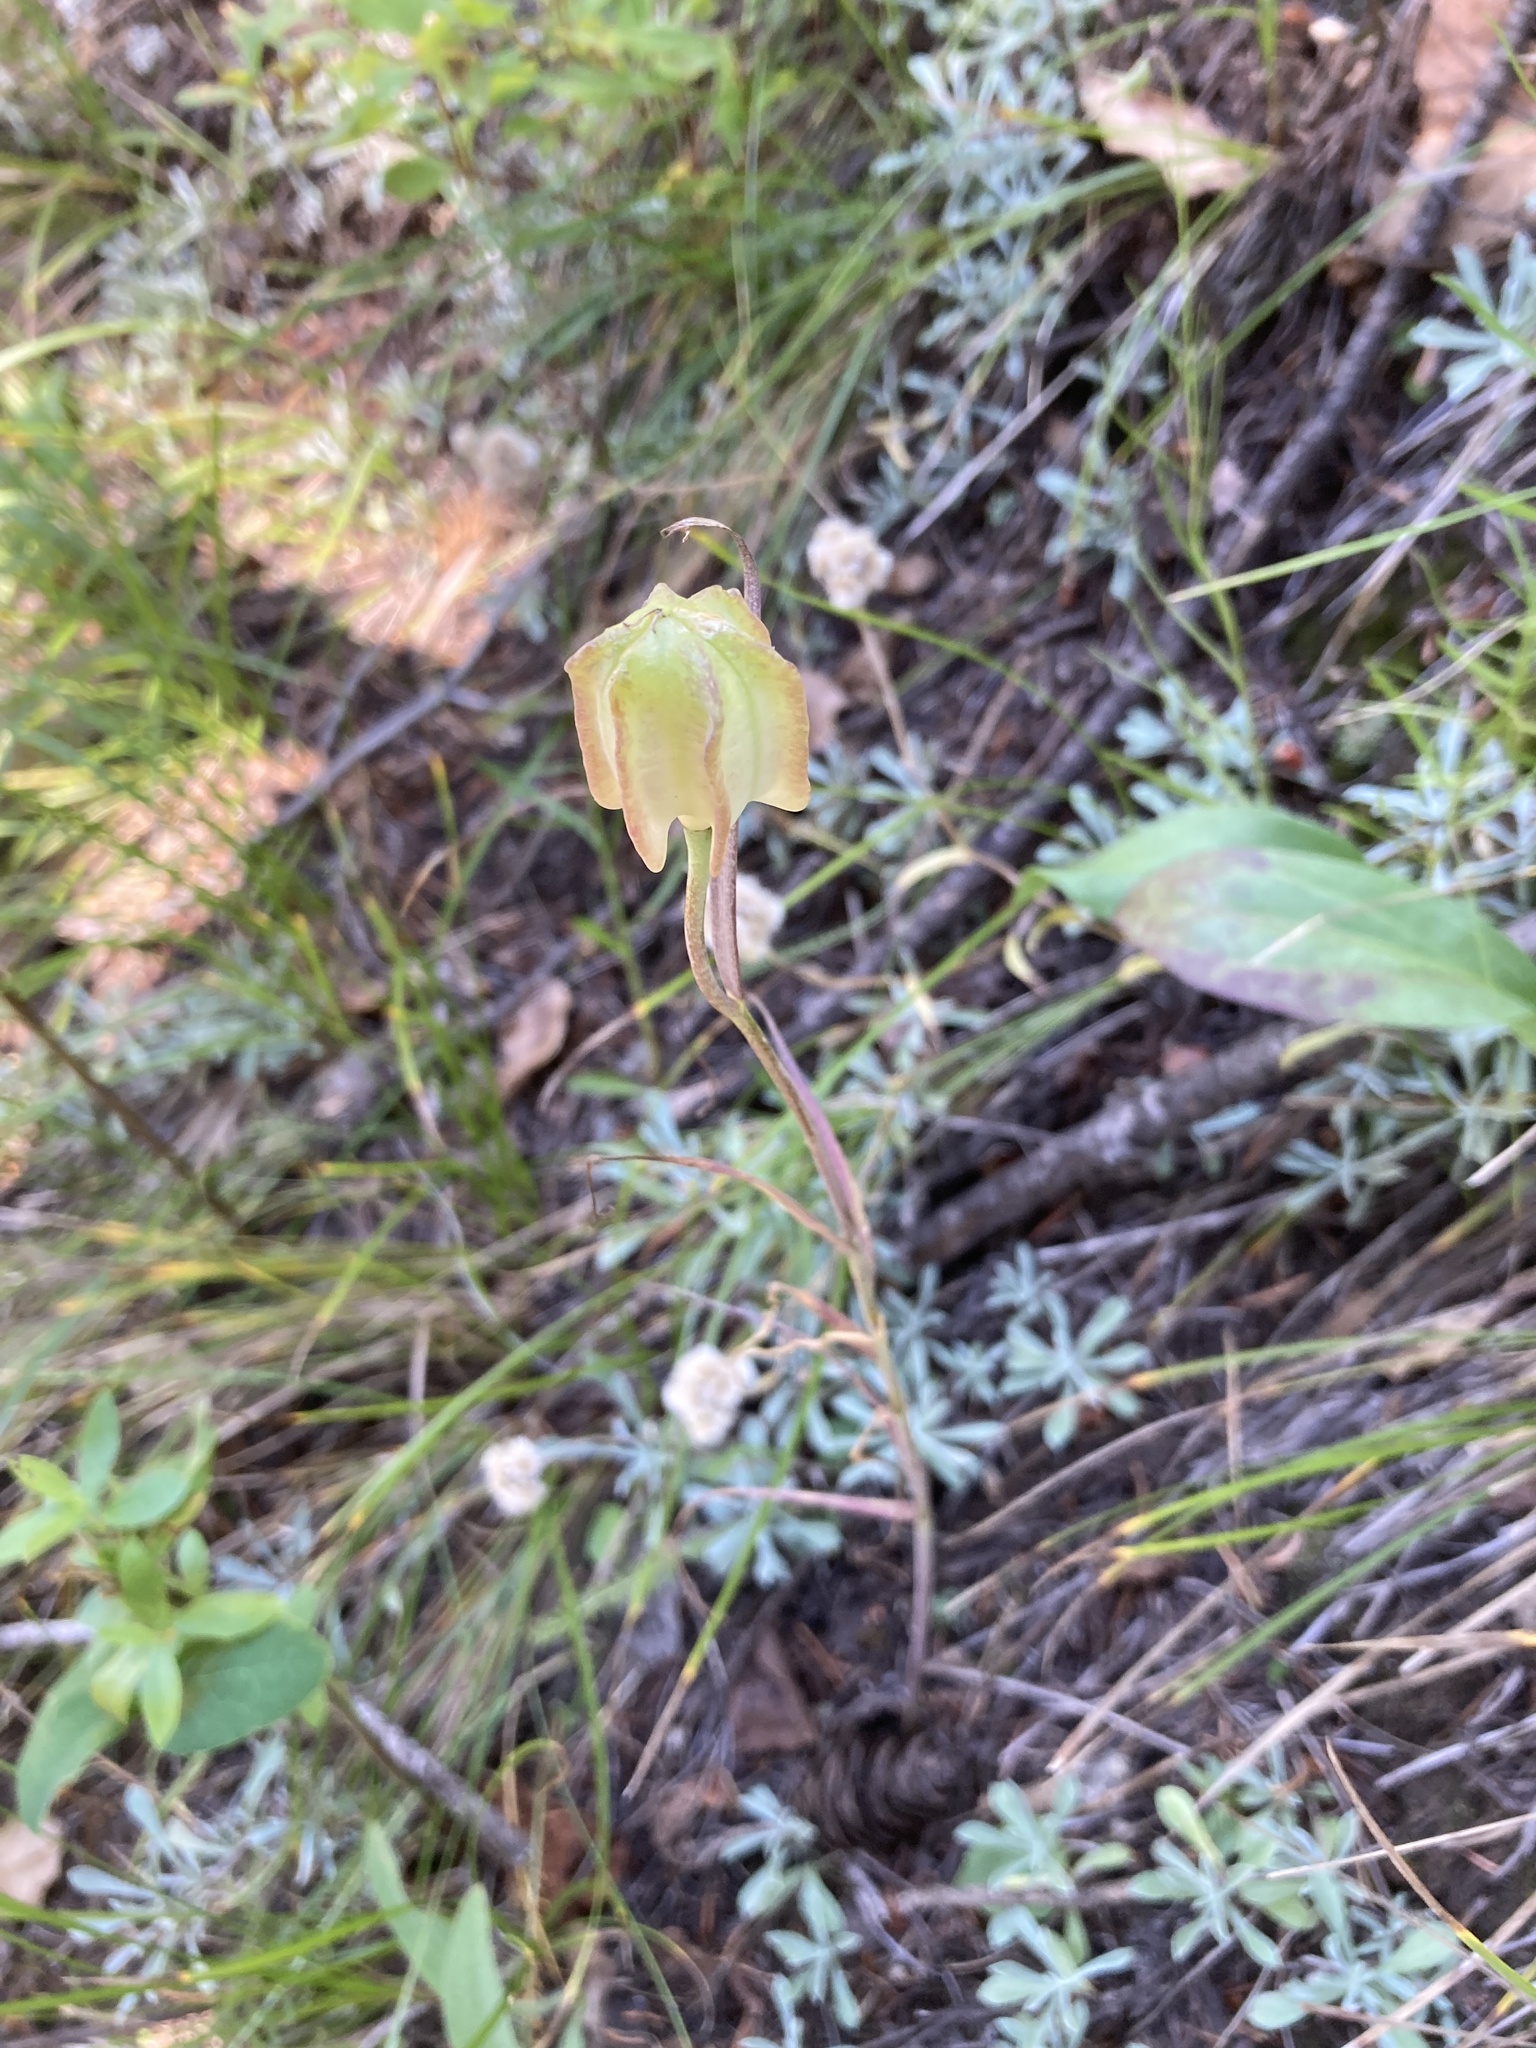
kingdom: Plantae
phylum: Tracheophyta
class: Liliopsida
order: Liliales
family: Liliaceae
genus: Fritillaria
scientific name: Fritillaria atropurpurea
